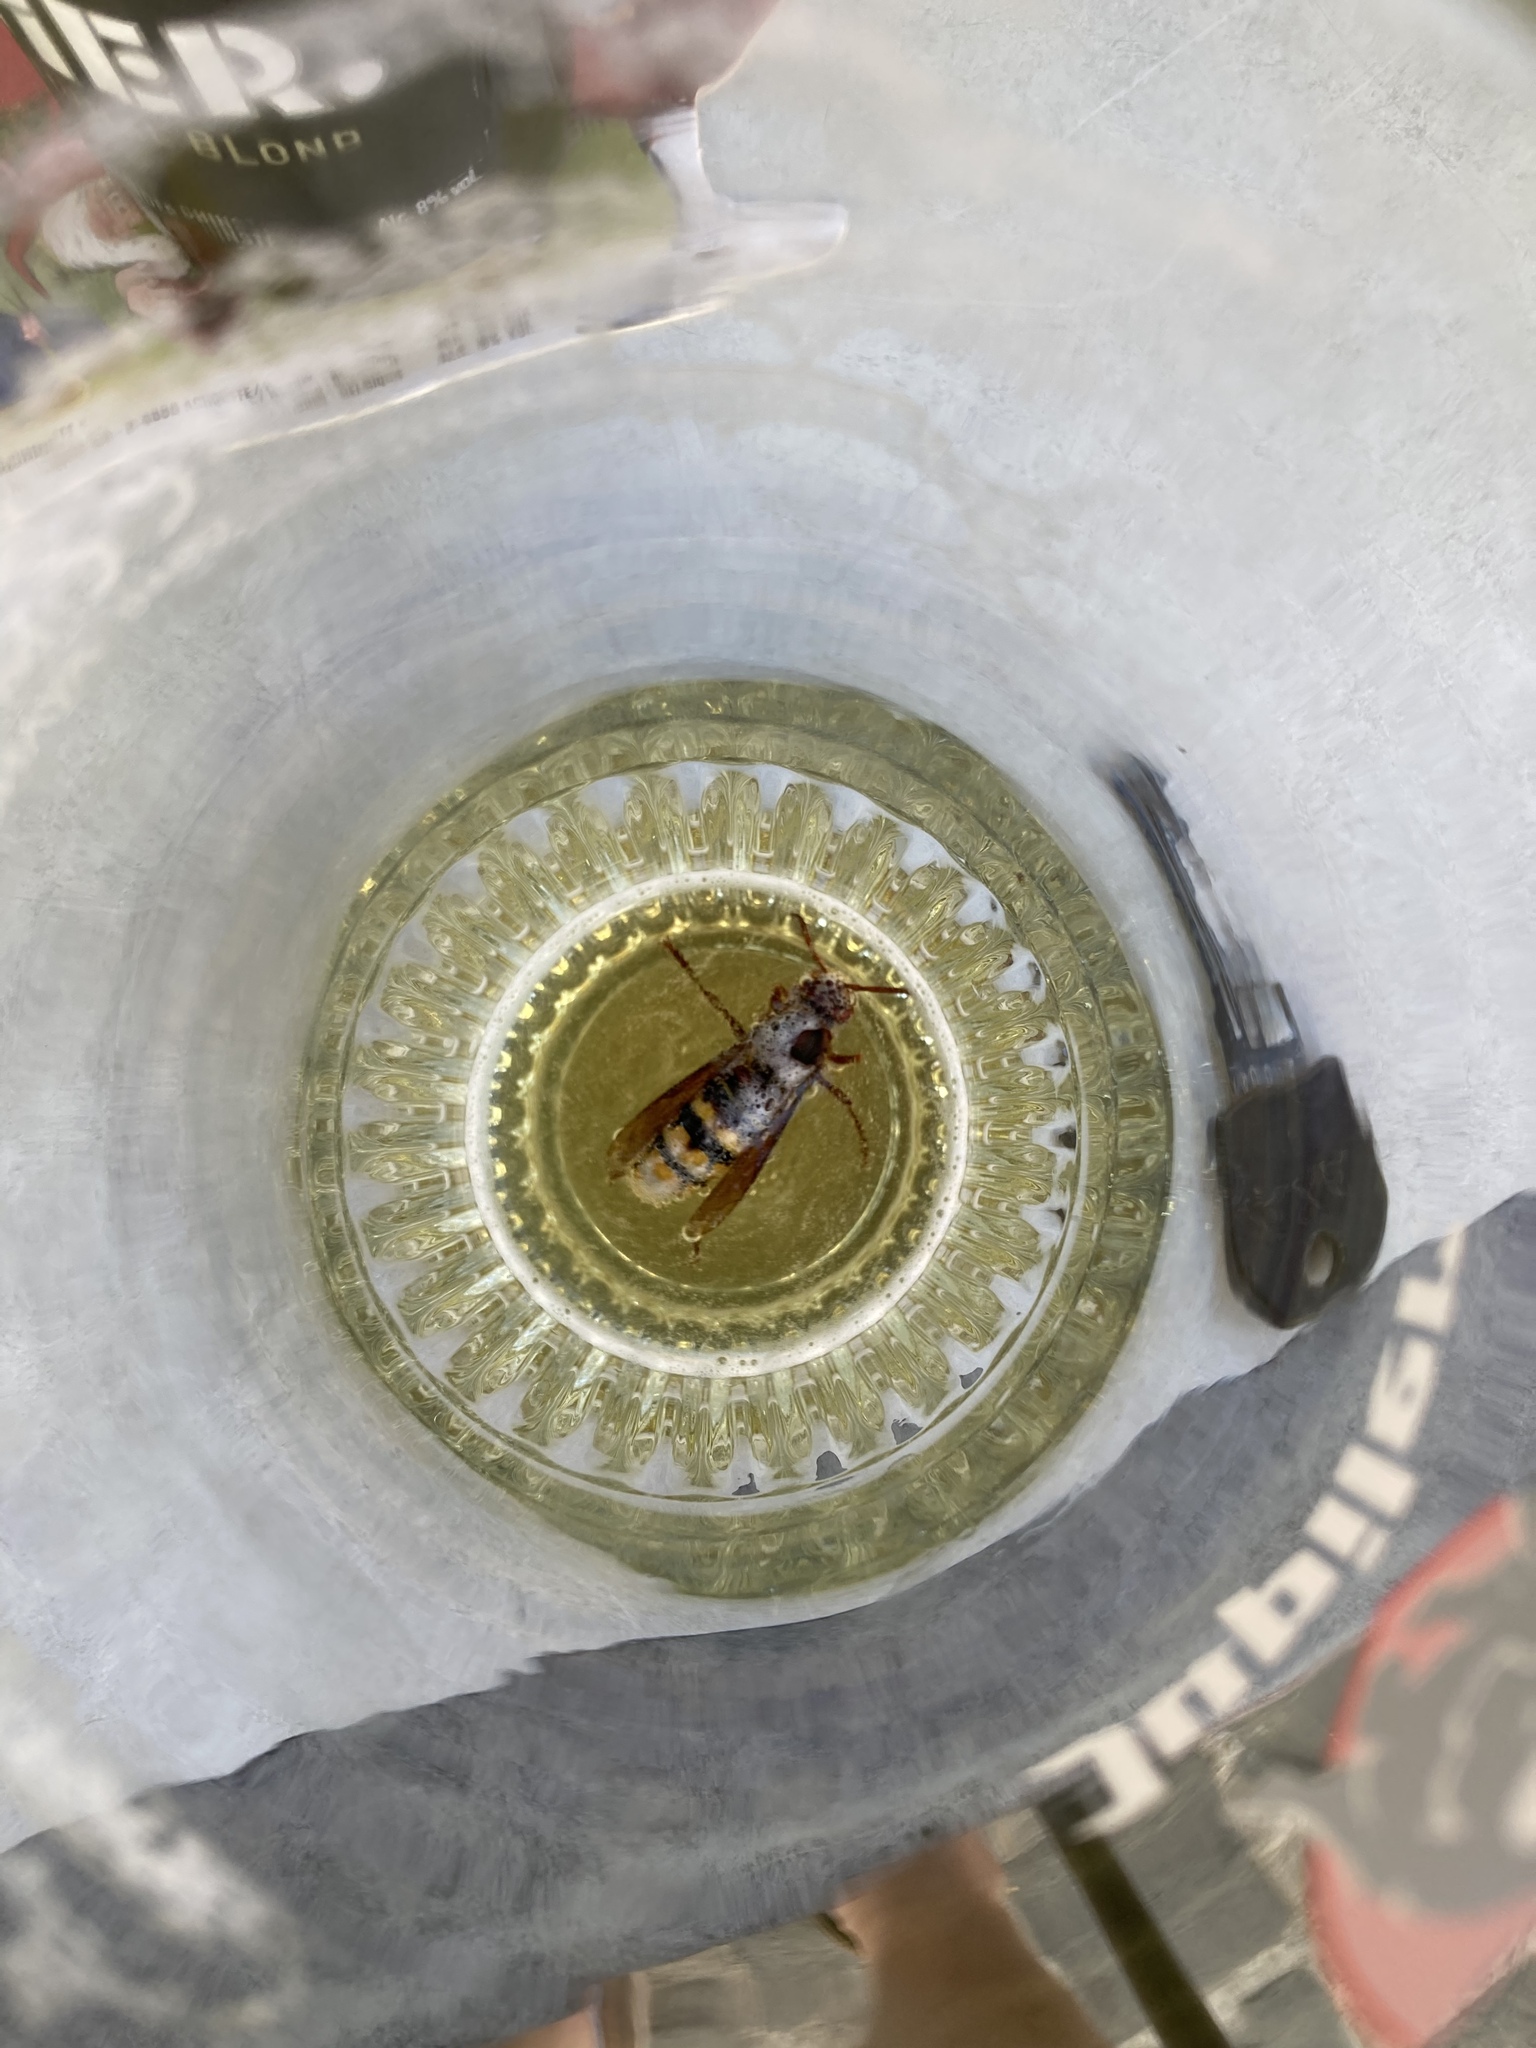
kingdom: Animalia
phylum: Arthropoda
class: Insecta
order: Hymenoptera
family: Vespidae
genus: Vespa
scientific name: Vespa crabro
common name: Hornet
